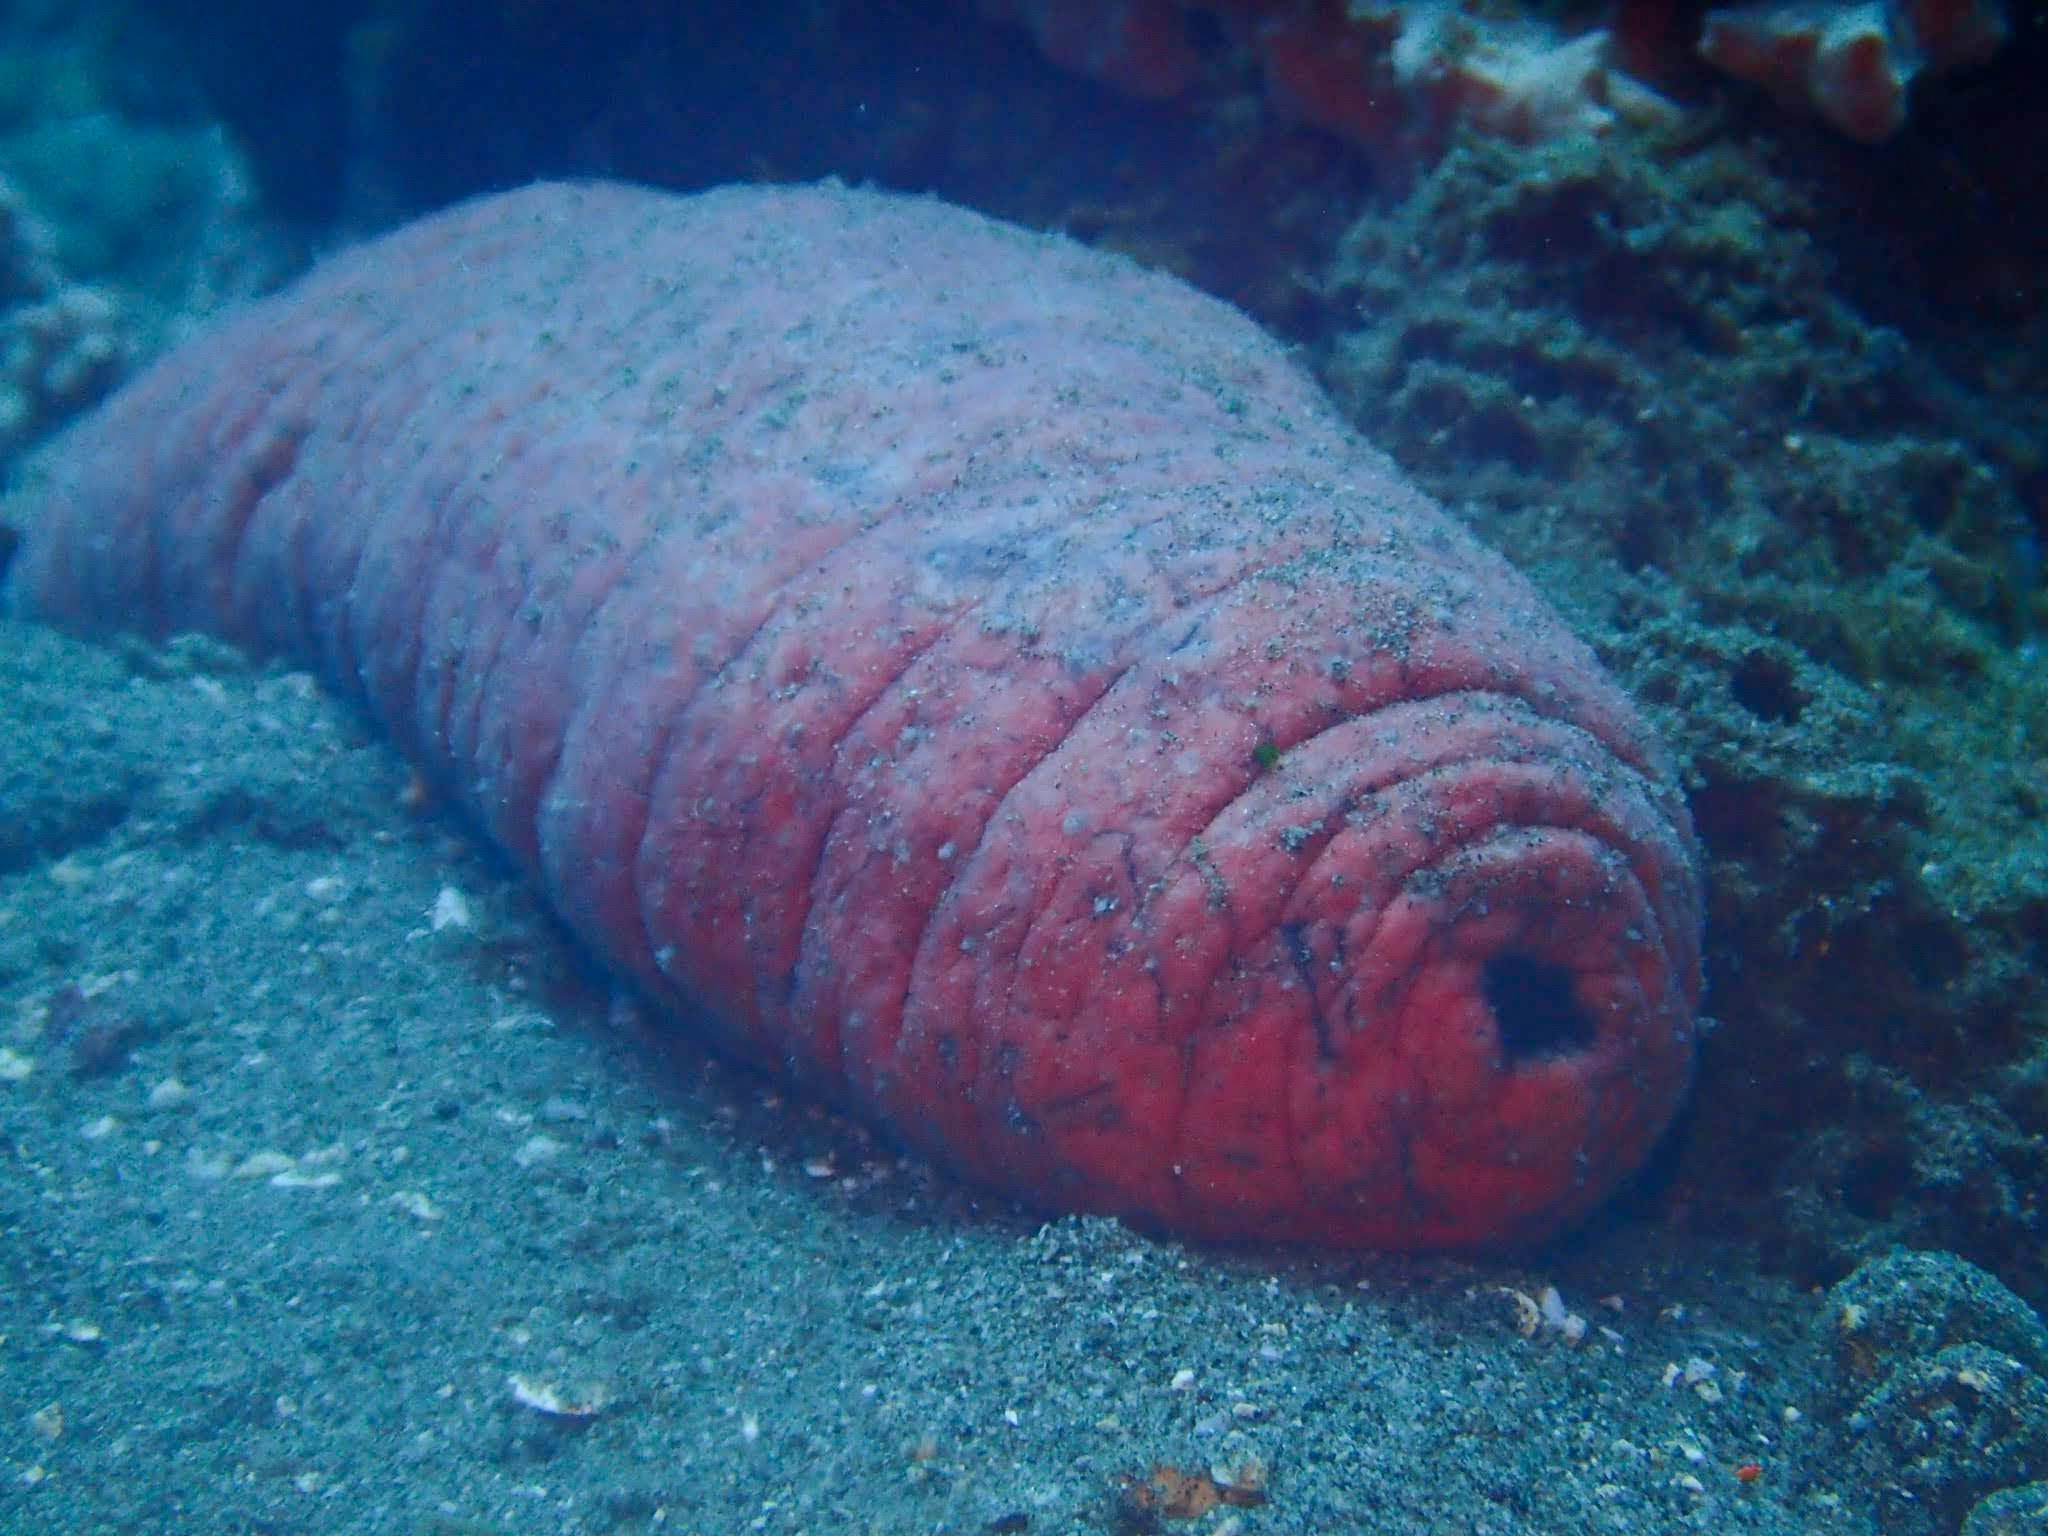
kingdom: Animalia
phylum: Echinodermata
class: Holothuroidea
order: Holothuriida
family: Holothuriidae
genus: Holothuria
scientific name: Holothuria edulis
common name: Pinkfish
